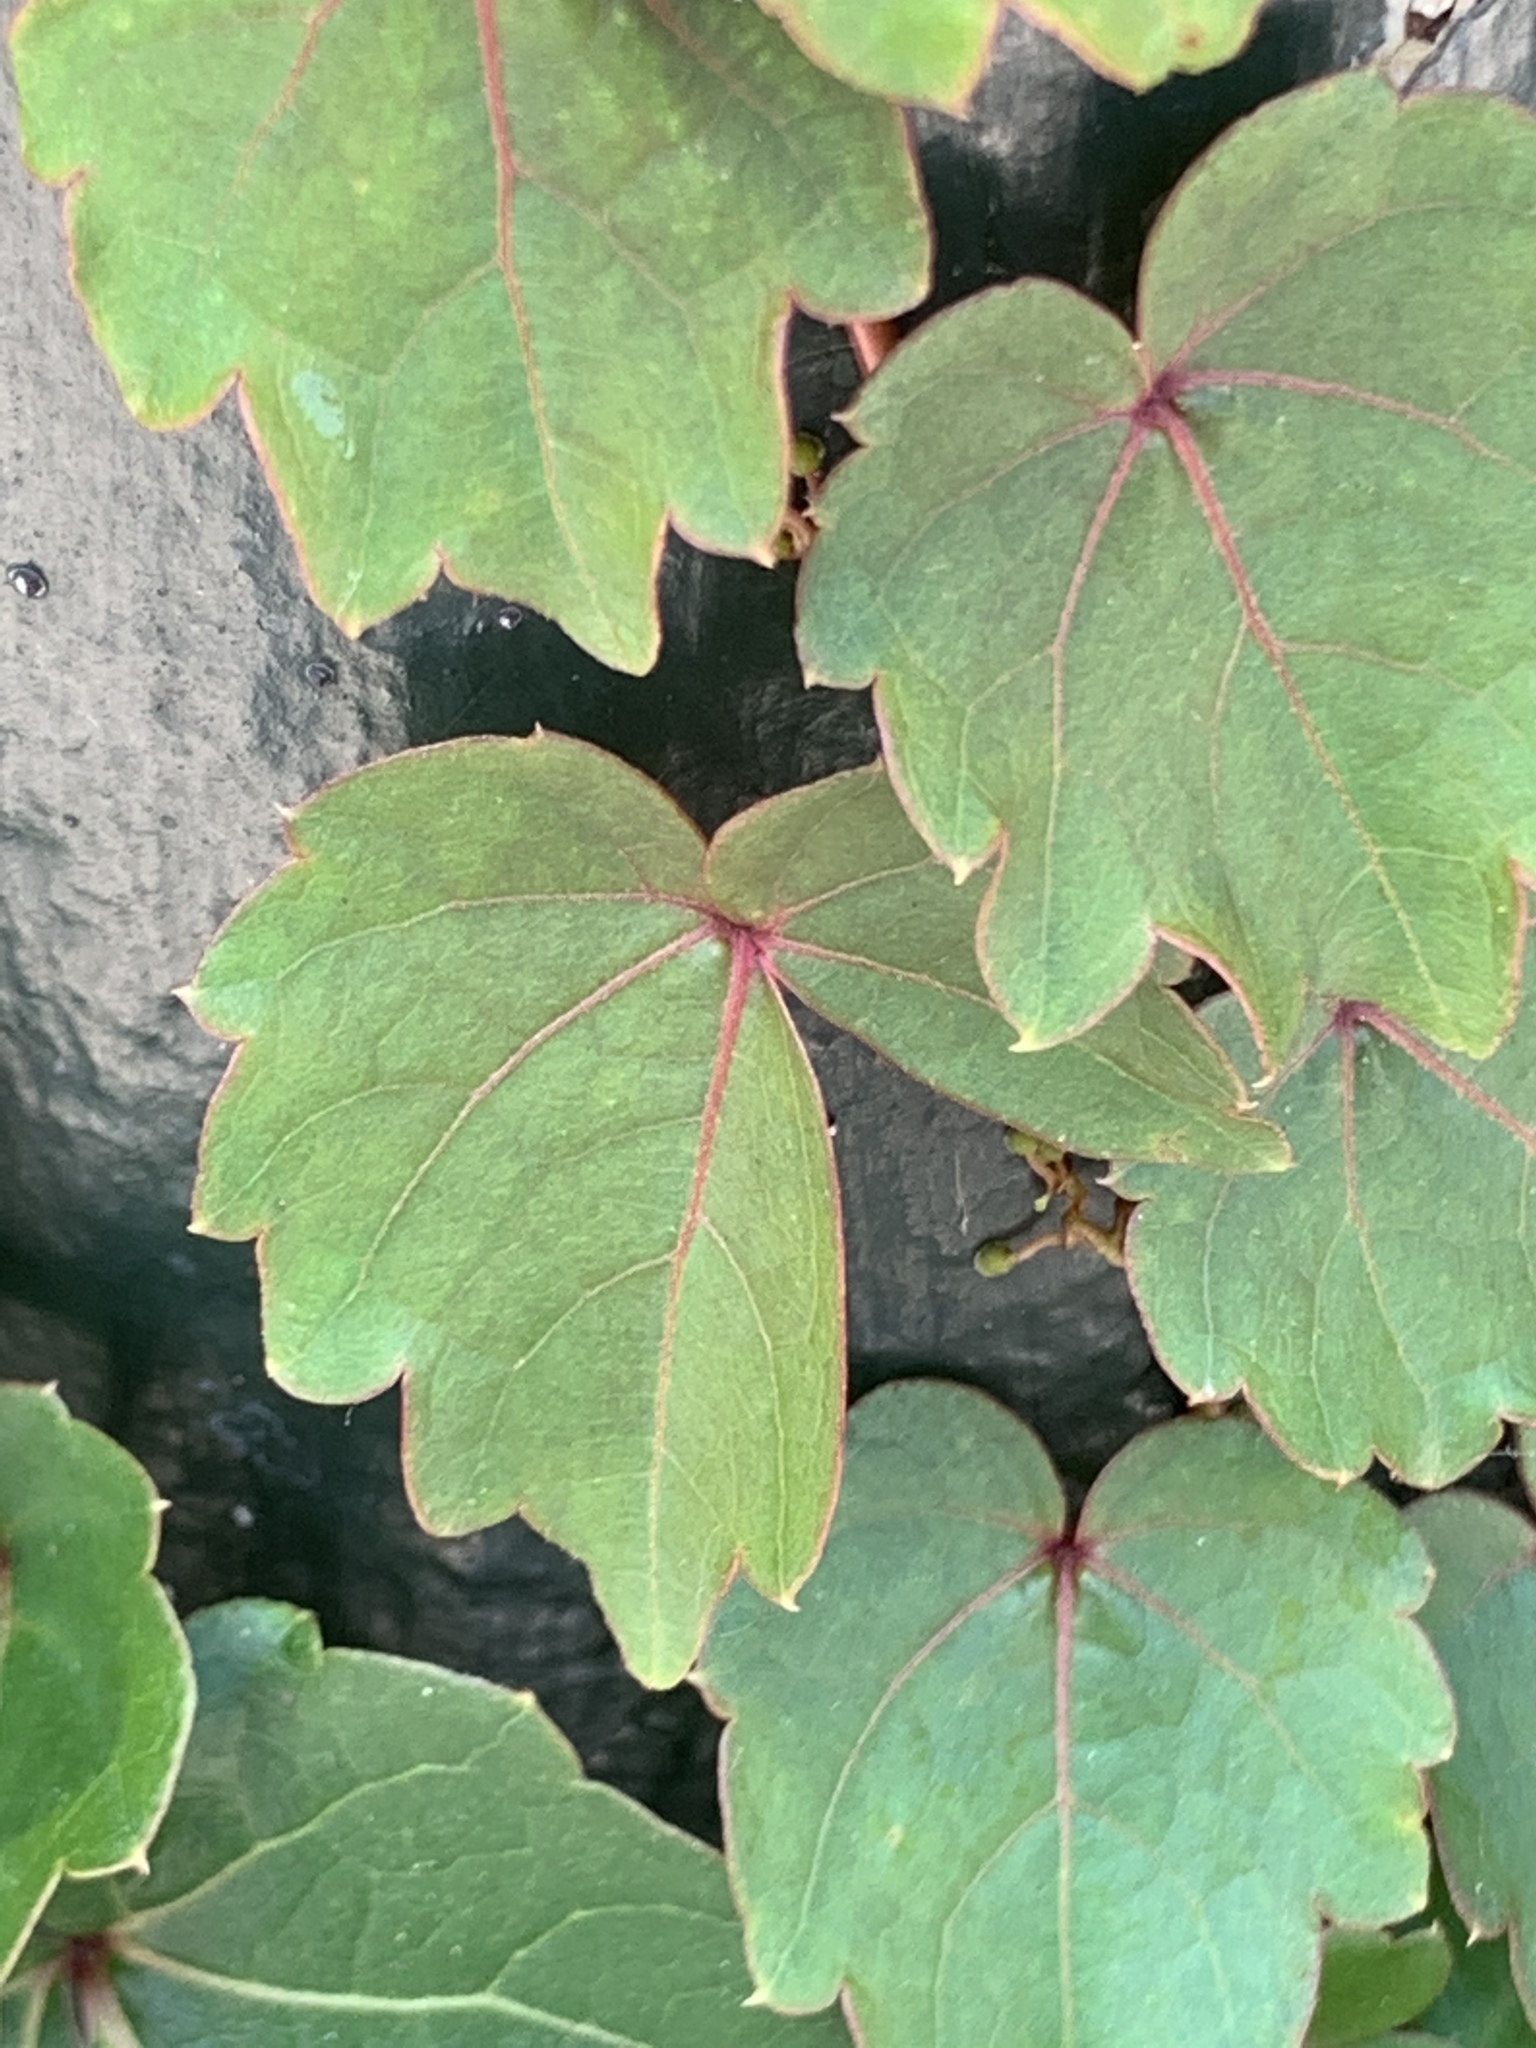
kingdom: Plantae
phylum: Tracheophyta
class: Magnoliopsida
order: Vitales
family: Vitaceae
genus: Parthenocissus
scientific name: Parthenocissus tricuspidata
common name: Boston ivy
